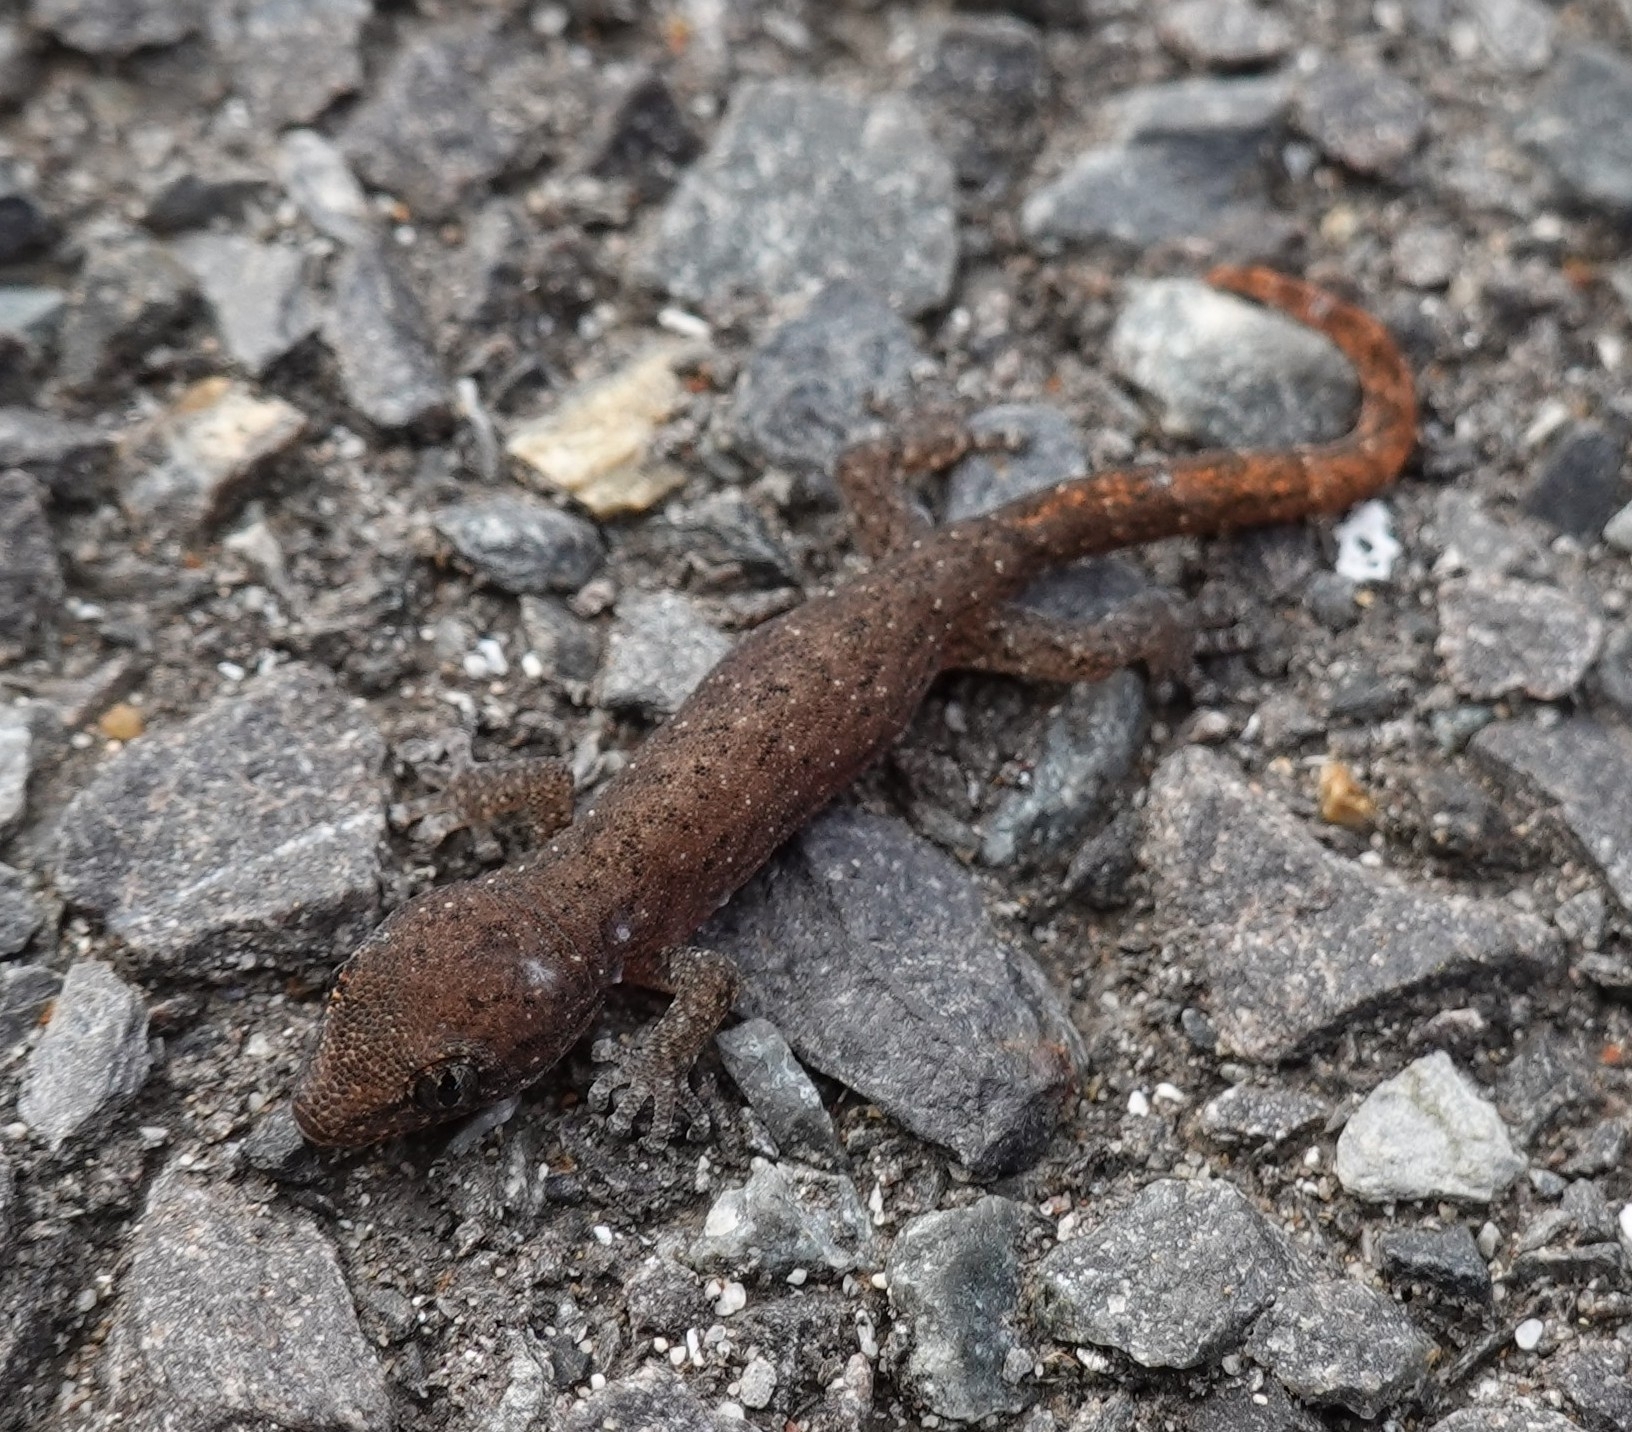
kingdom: Animalia
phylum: Chordata
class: Squamata
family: Gekkonidae
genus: Afrogecko
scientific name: Afrogecko porphyreus
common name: Marbled leaf-toed gecko
